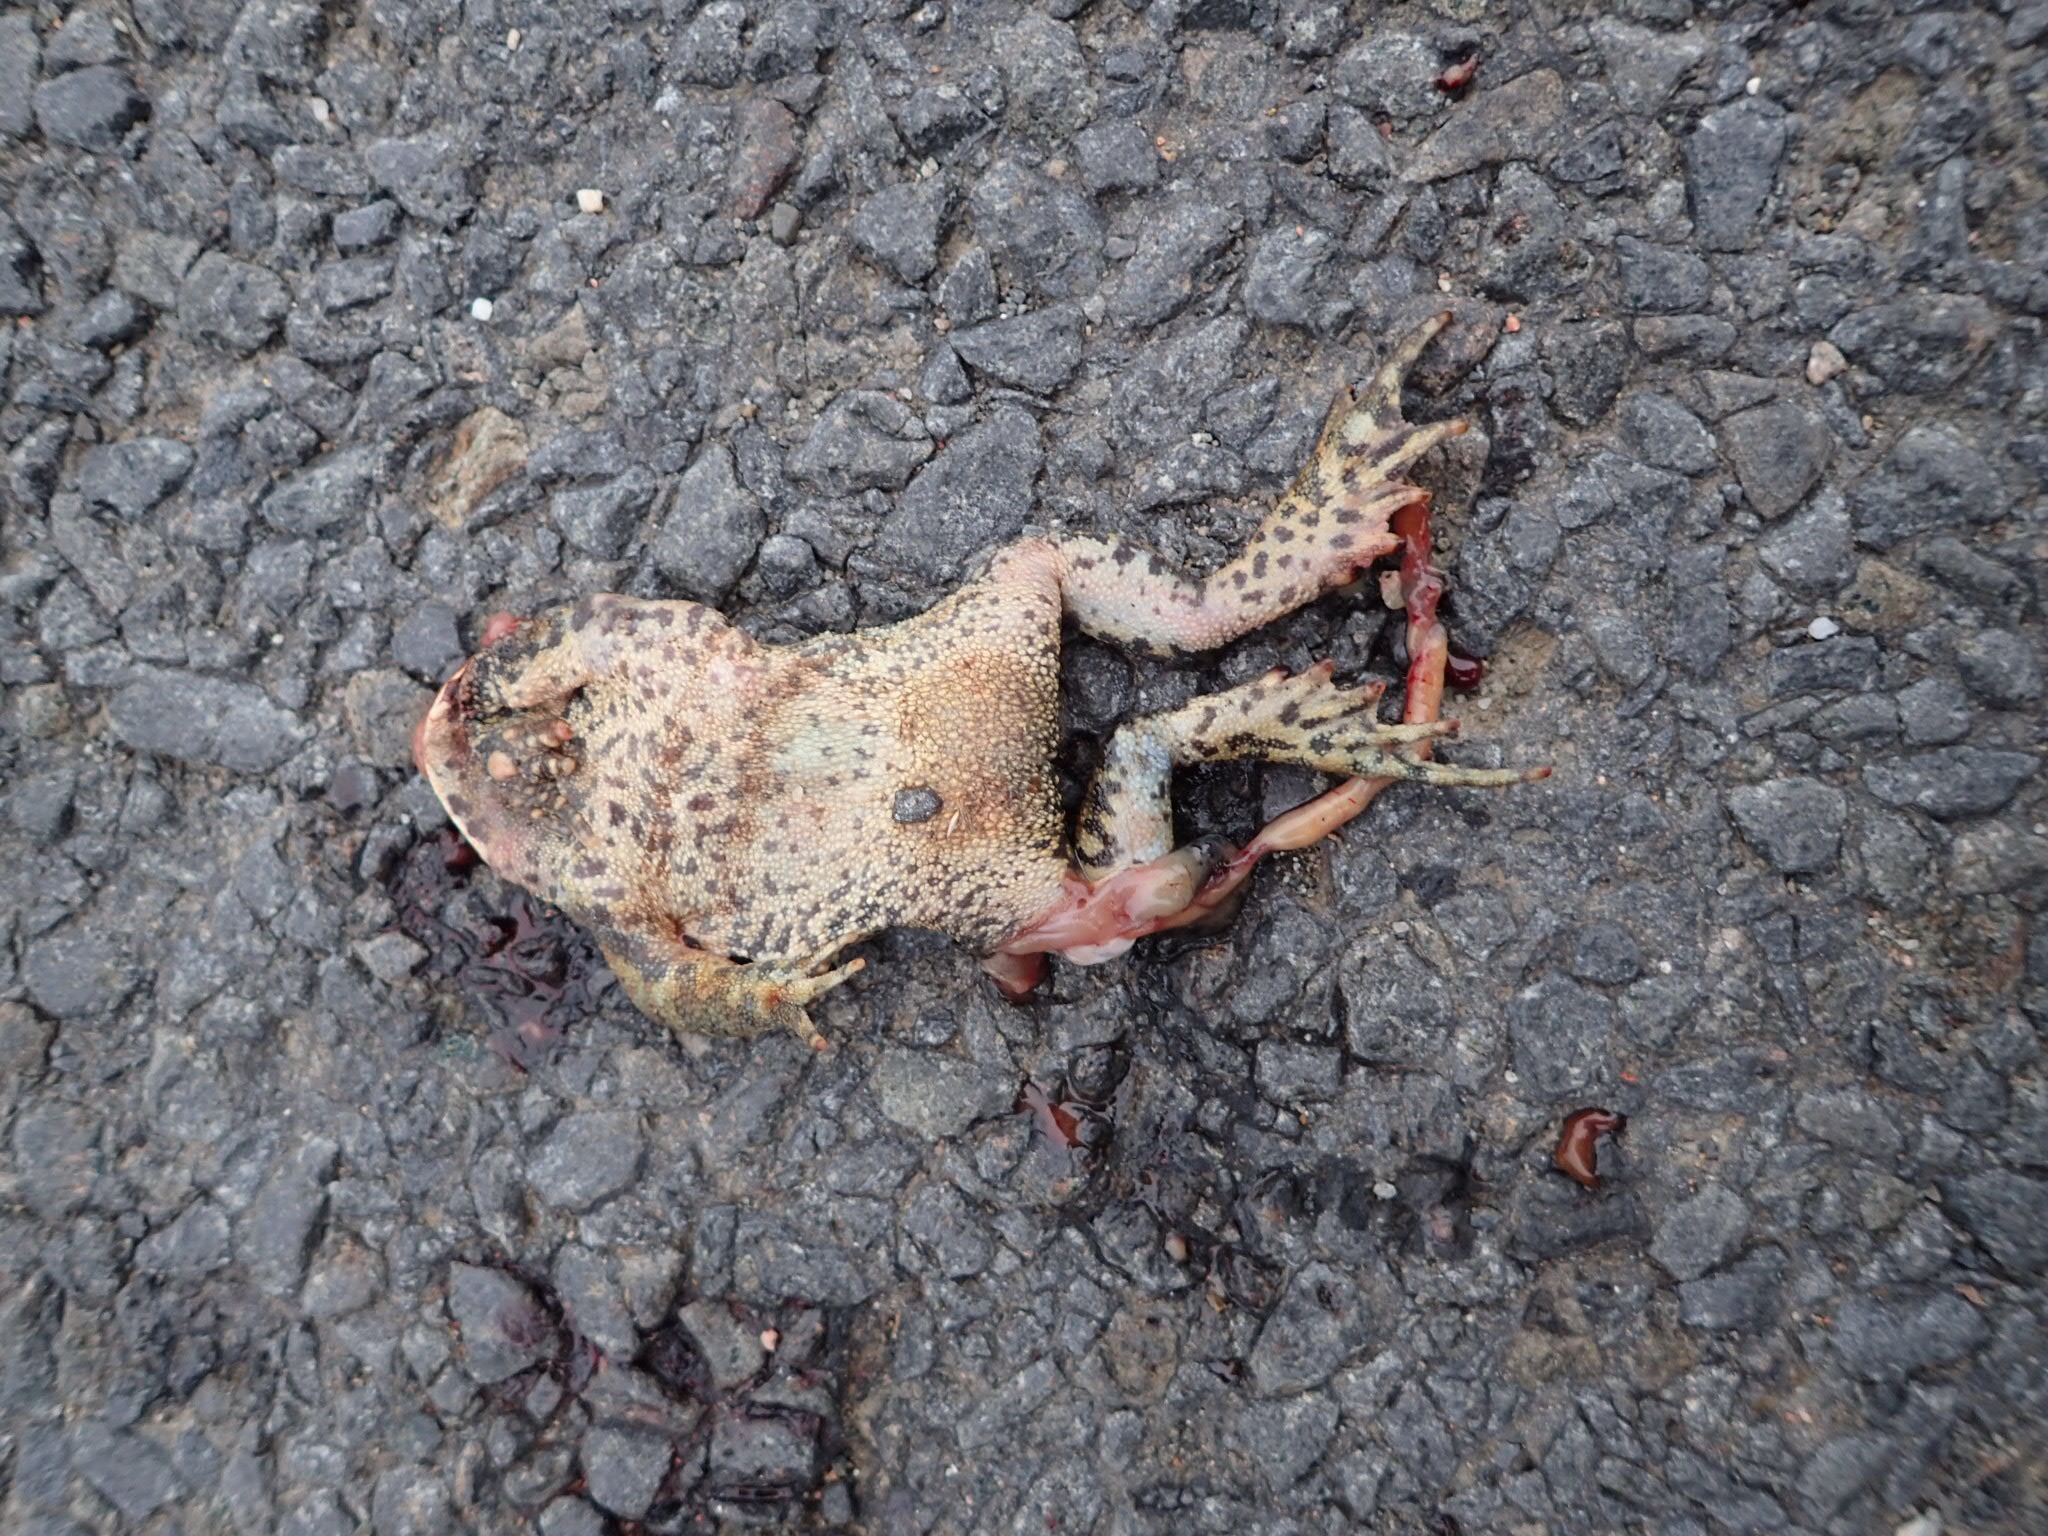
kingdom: Animalia
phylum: Chordata
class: Amphibia
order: Anura
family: Bufonidae
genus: Anaxyrus
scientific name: Anaxyrus americanus
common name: American toad
